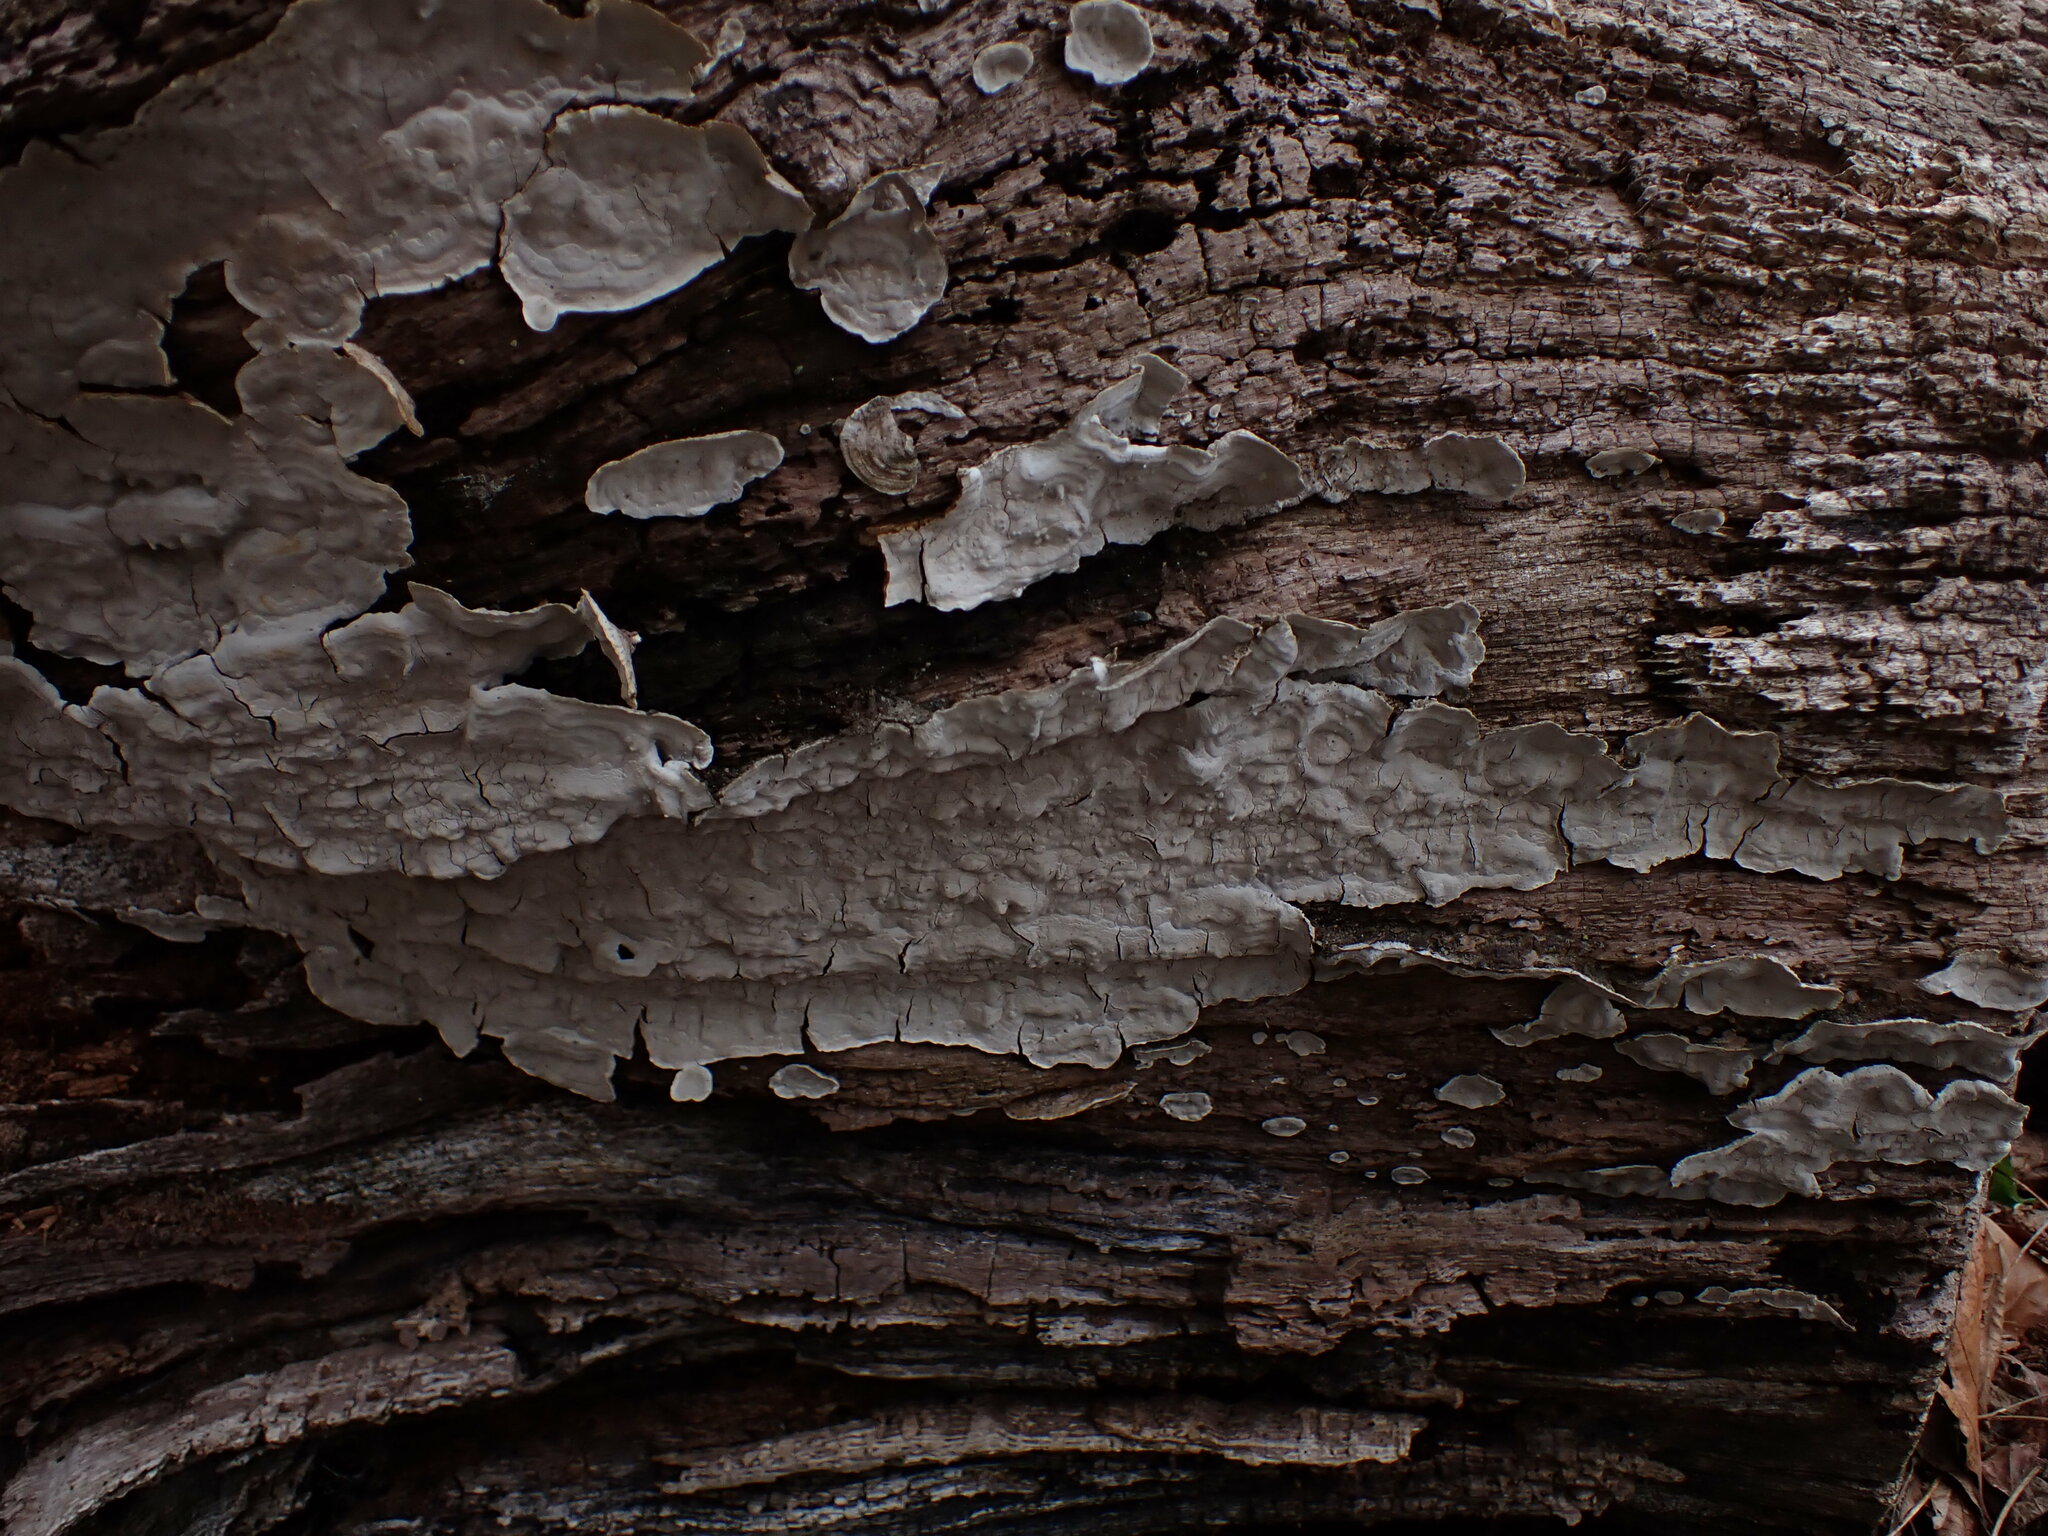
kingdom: Fungi
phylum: Basidiomycota
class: Agaricomycetes
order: Russulales
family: Stereaceae
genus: Xylobolus
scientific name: Xylobolus subpileatus
